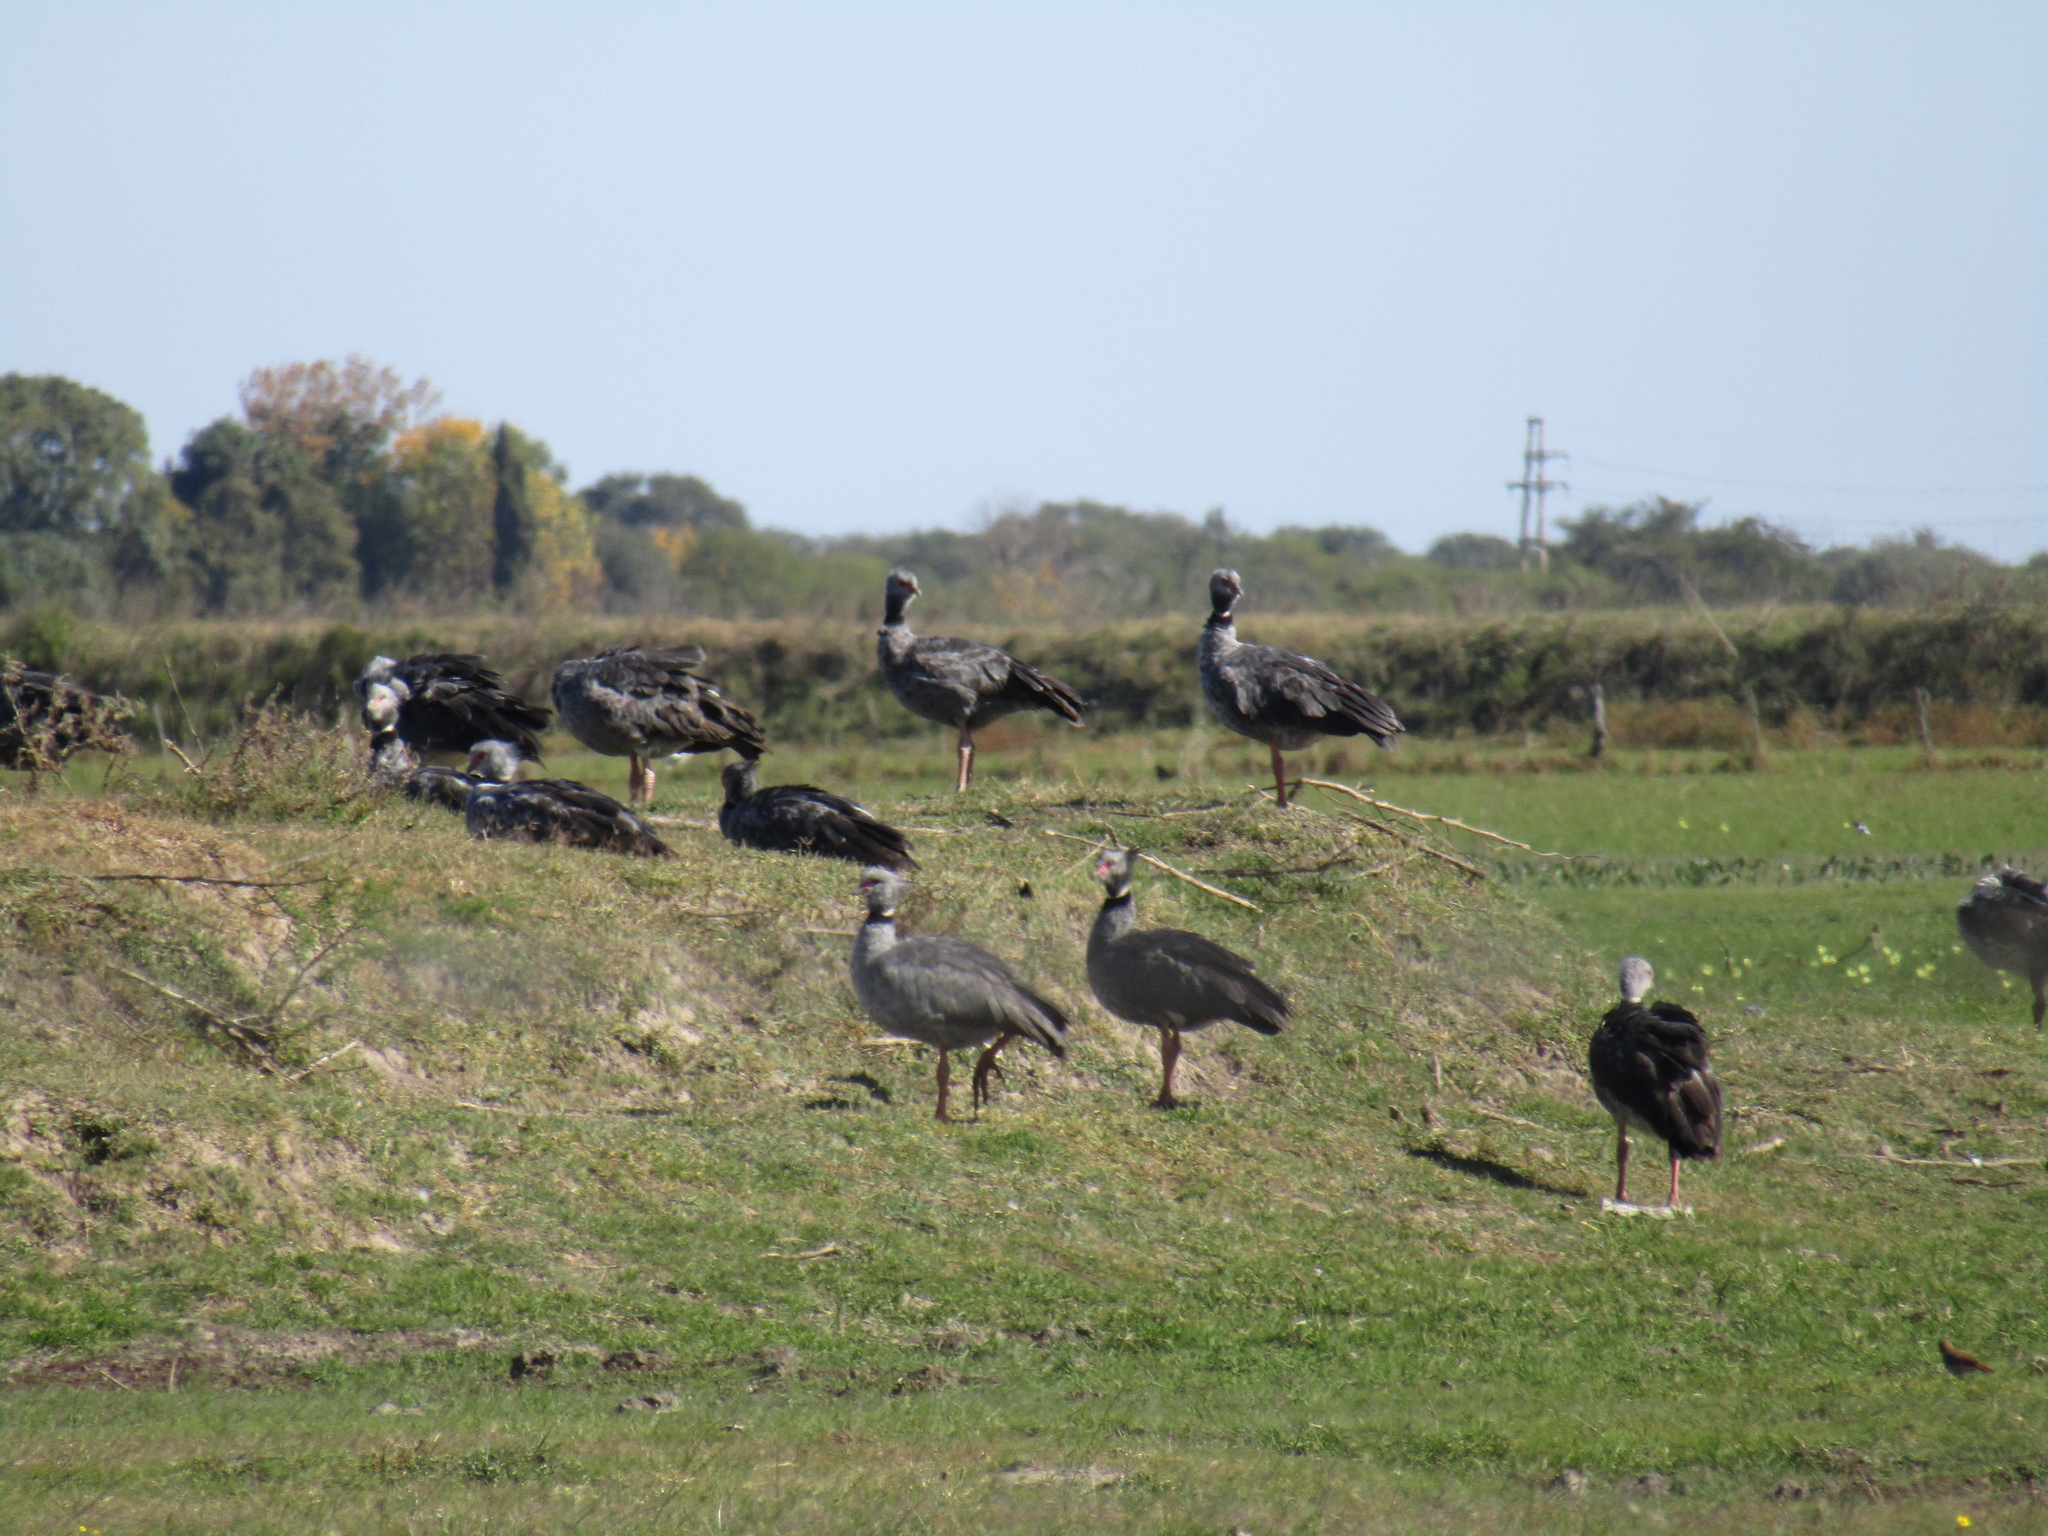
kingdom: Animalia
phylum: Chordata
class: Aves
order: Anseriformes
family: Anhimidae
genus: Chauna
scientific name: Chauna torquata
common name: Southern screamer
